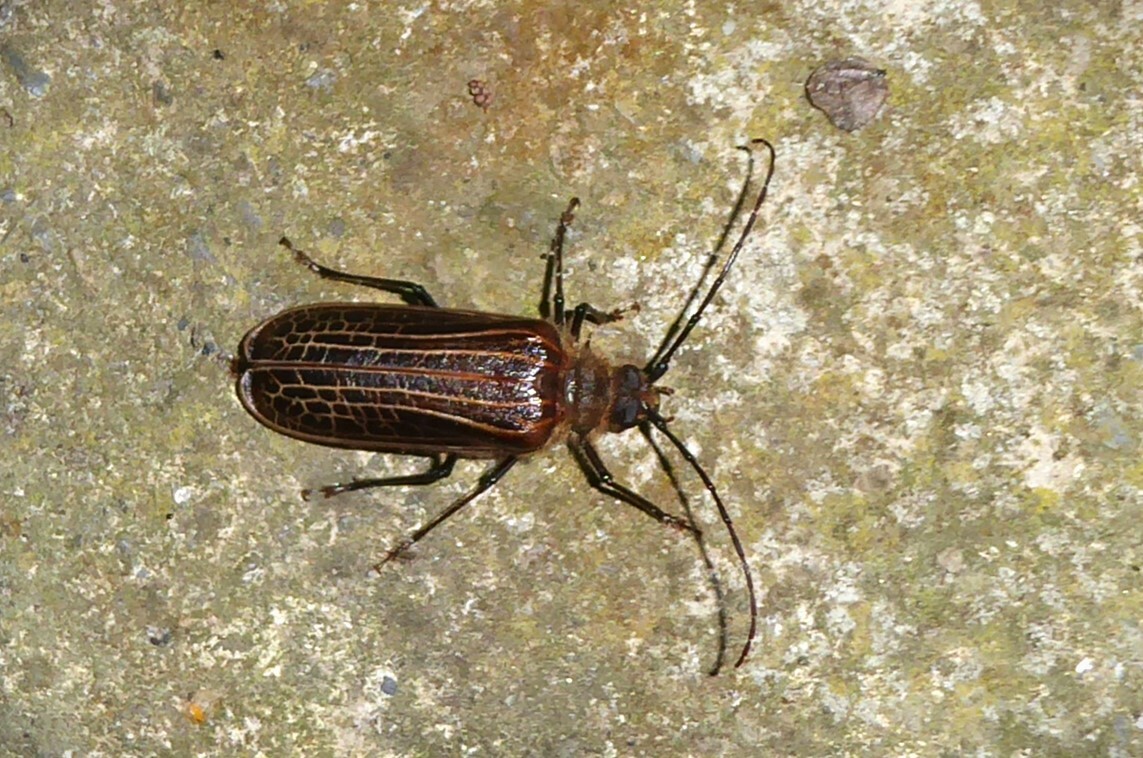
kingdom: Animalia
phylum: Arthropoda
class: Insecta
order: Coleoptera
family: Cerambycidae
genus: Prionoplus
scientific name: Prionoplus reticularis
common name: Huhu beetle
